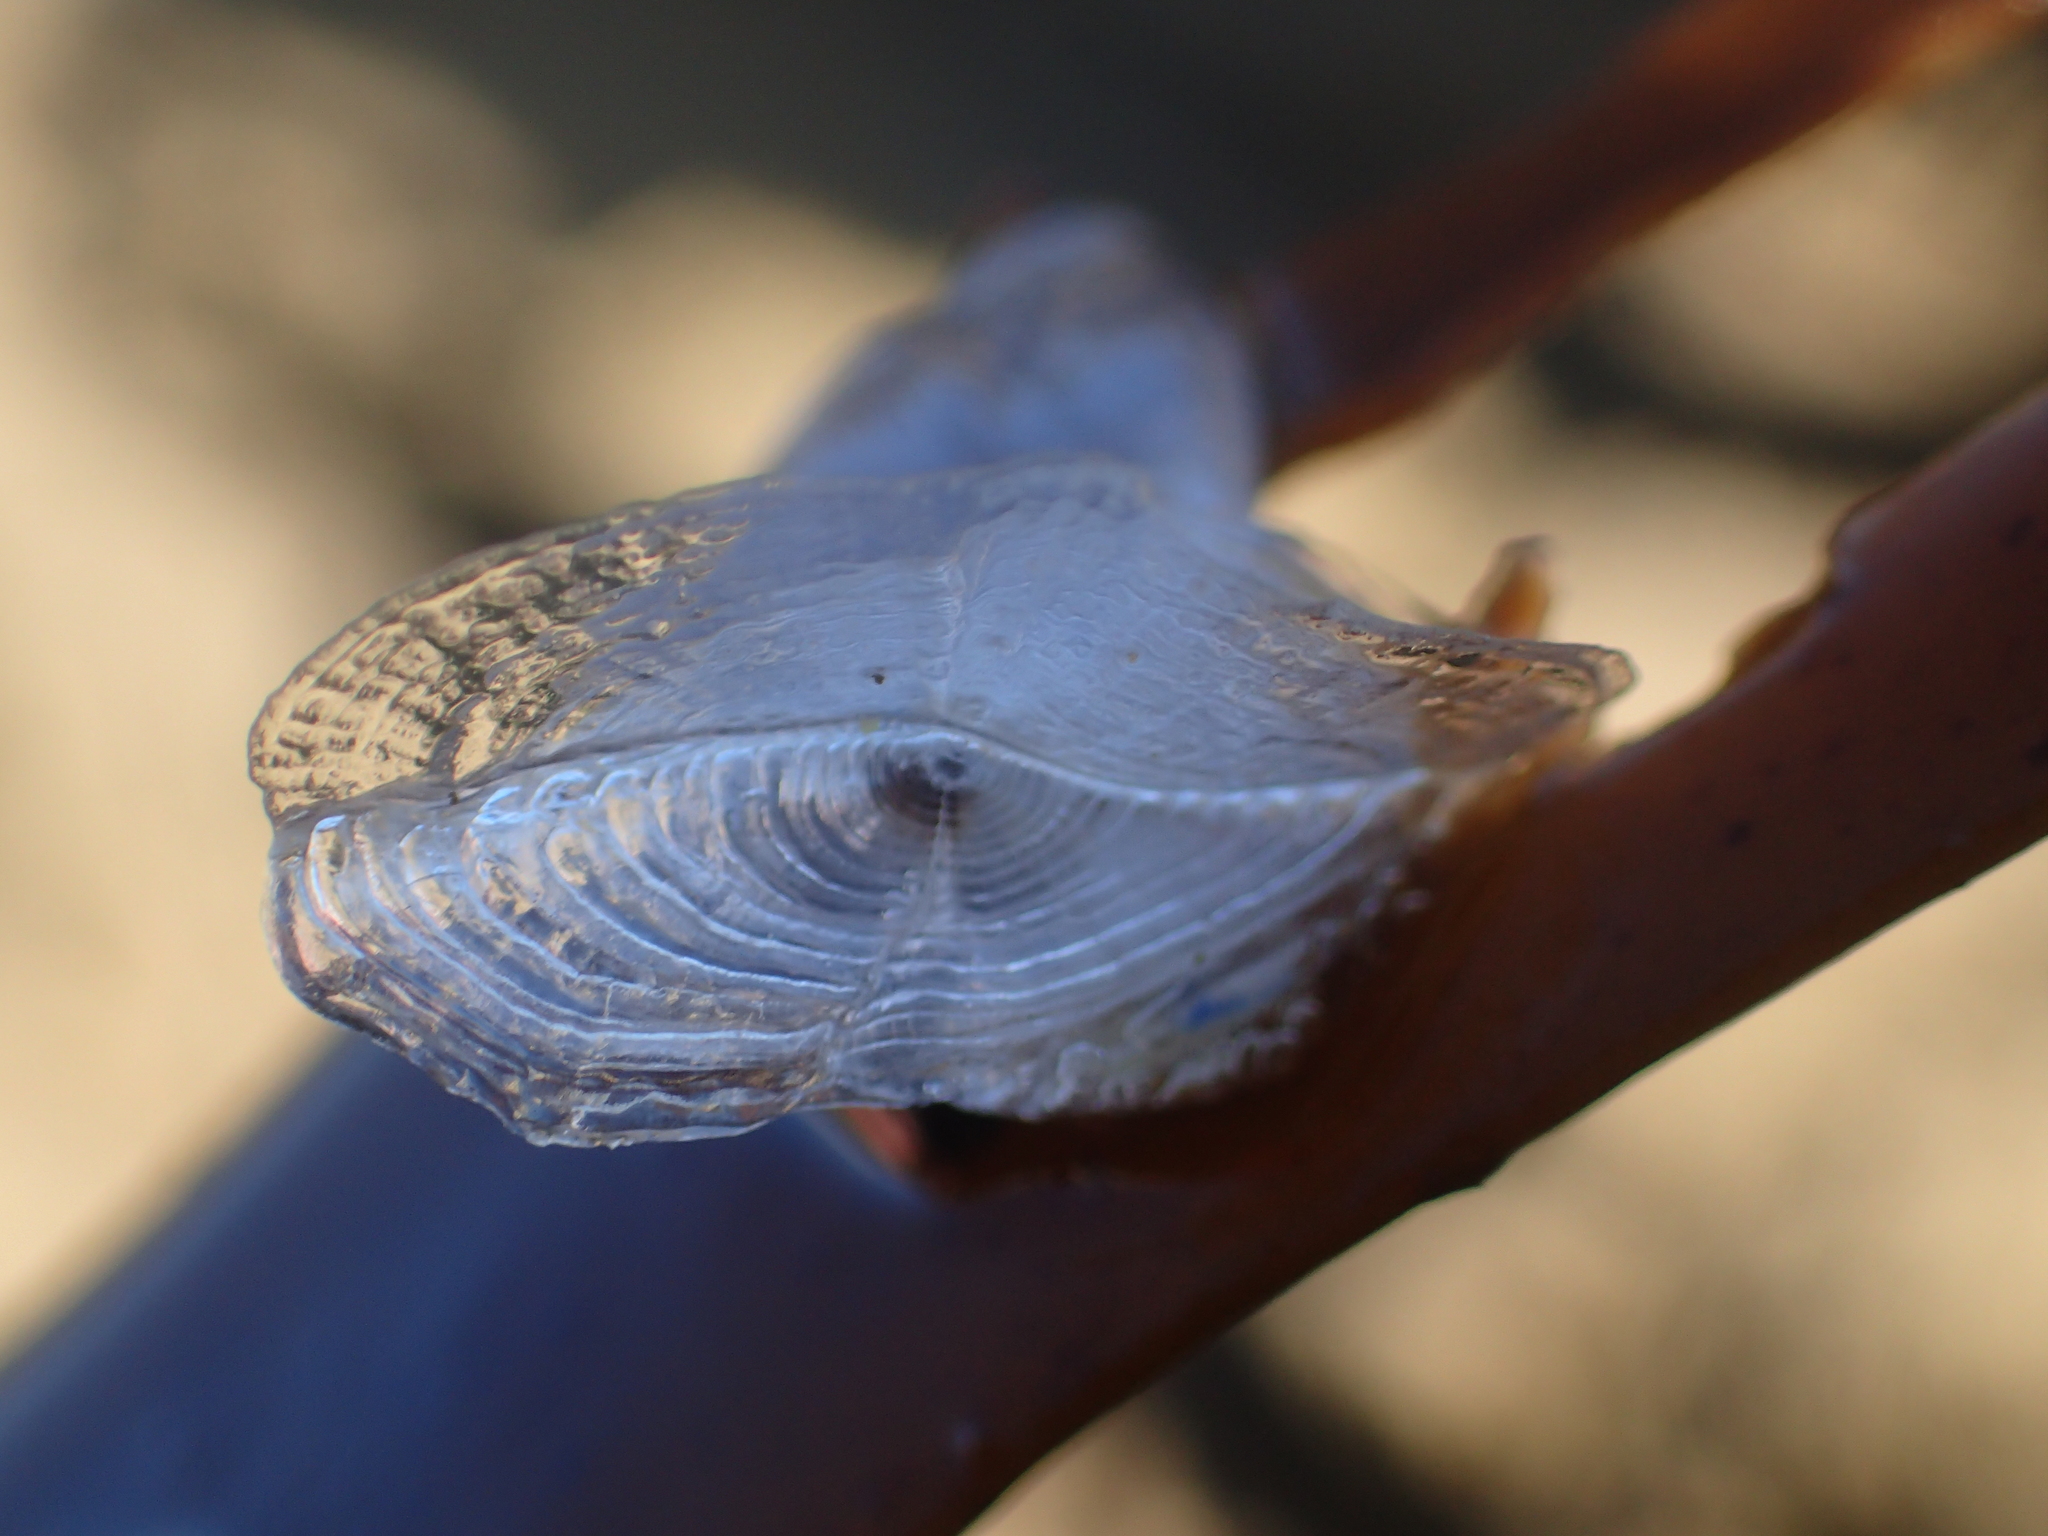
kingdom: Animalia
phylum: Arthropoda
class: Maxillopoda
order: Pedunculata
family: Lepadidae
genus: Dosima
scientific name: Dosima fascicularis
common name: Buoy barnacle
